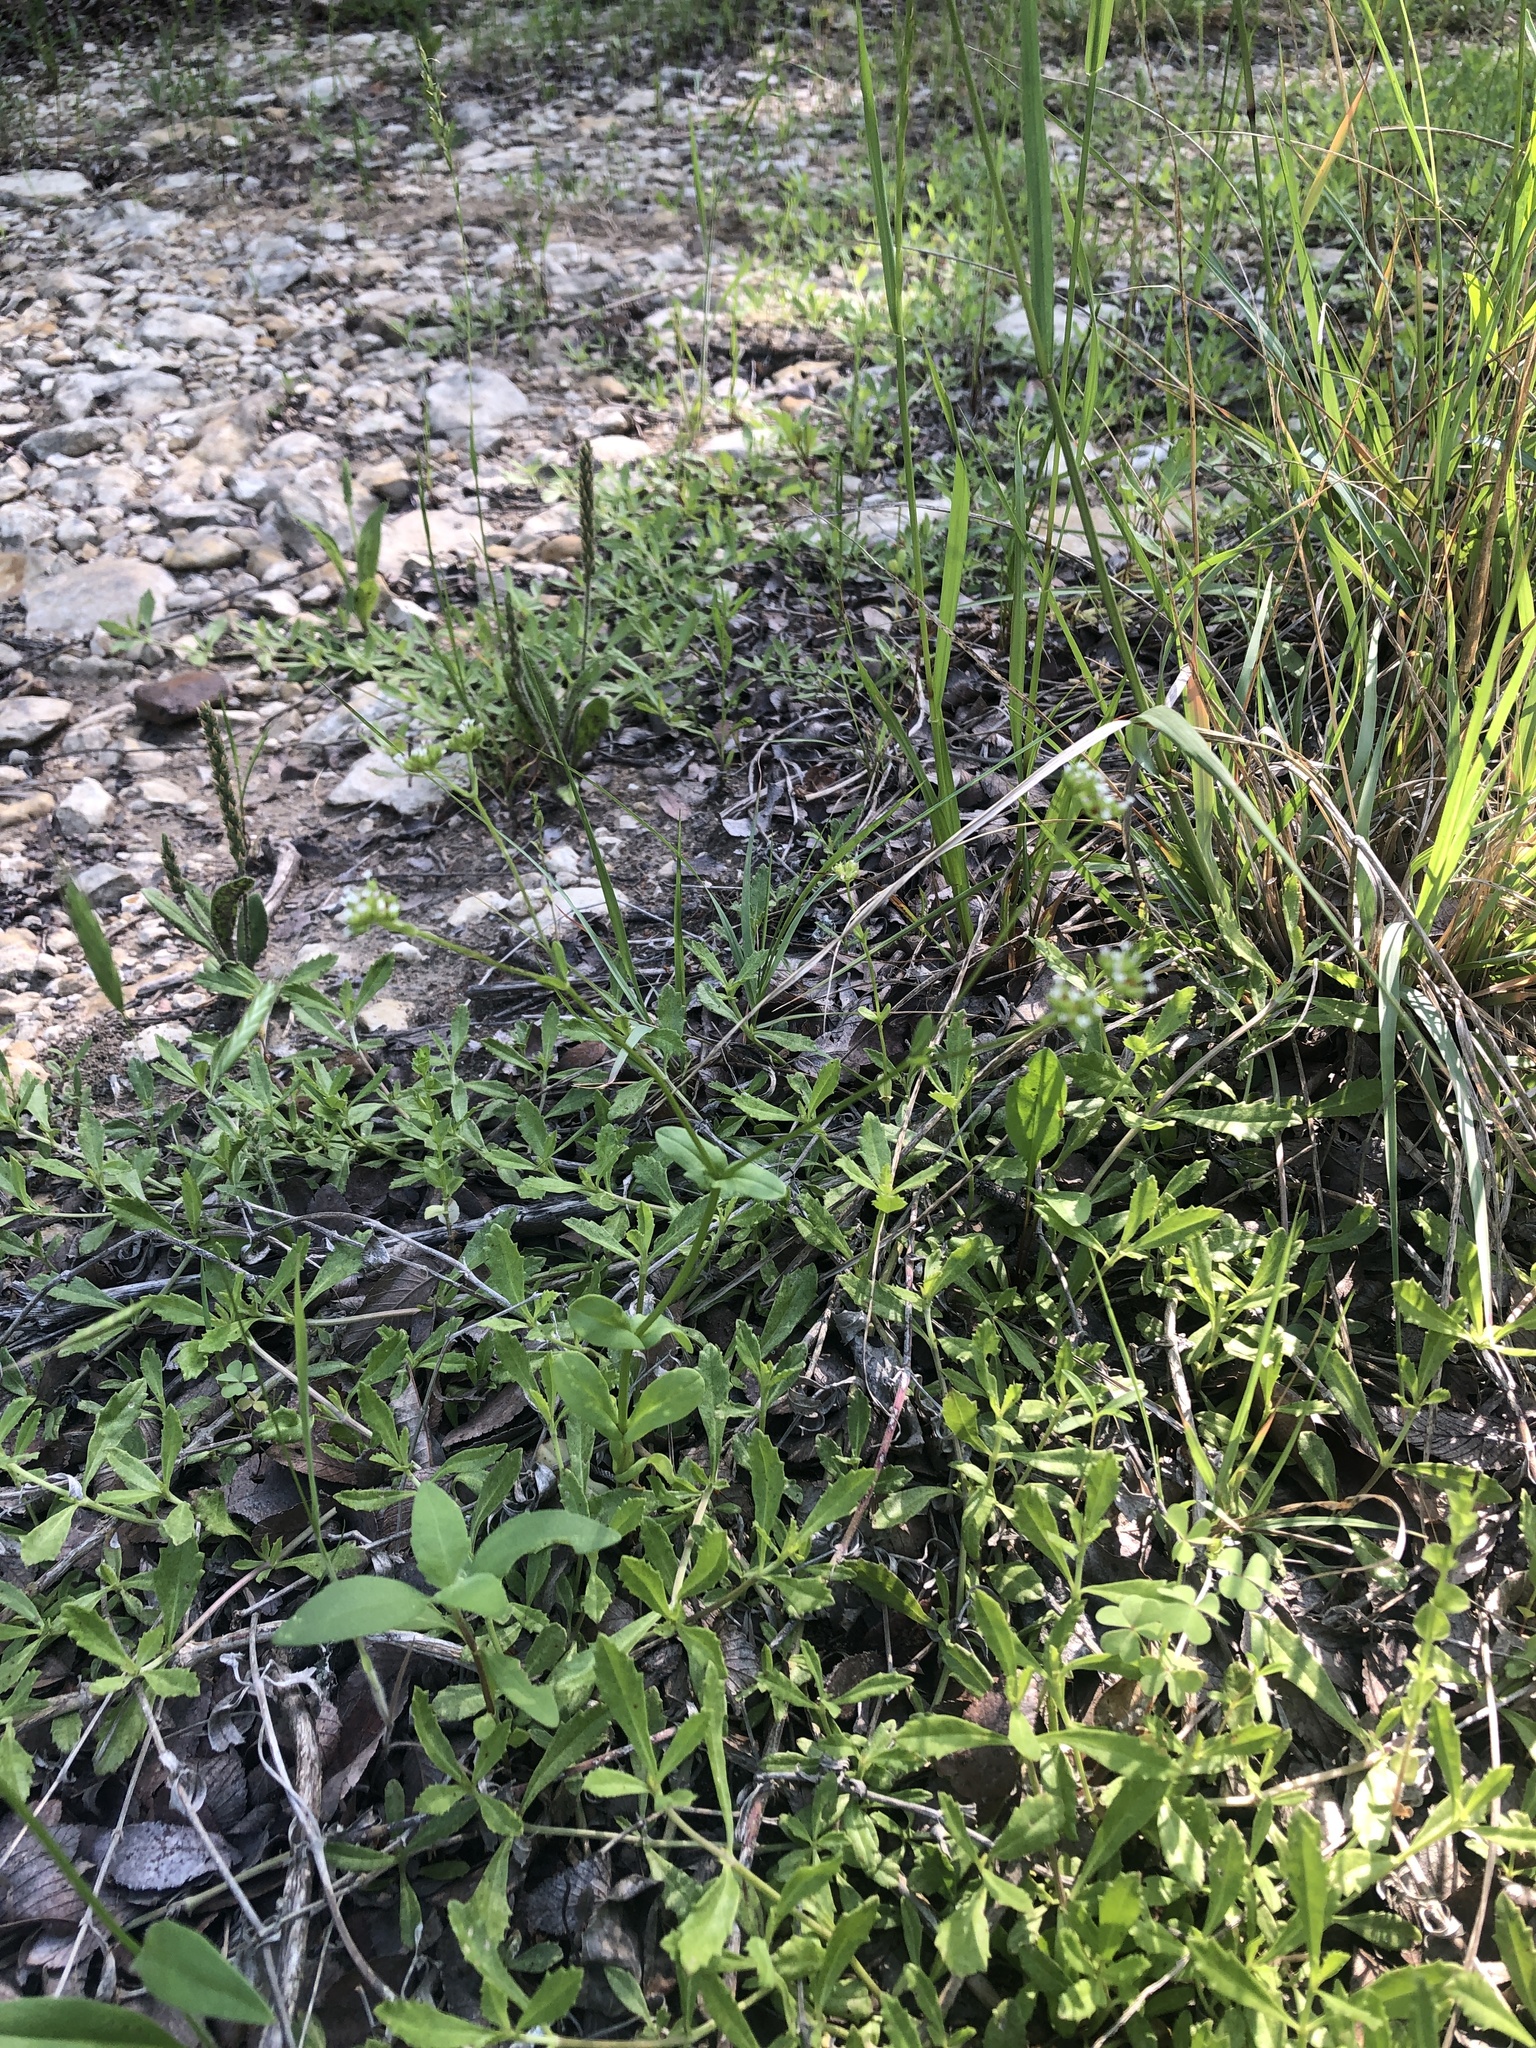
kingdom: Plantae
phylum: Tracheophyta
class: Magnoliopsida
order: Dipsacales
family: Caprifoliaceae
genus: Valerianella
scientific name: Valerianella radiata
